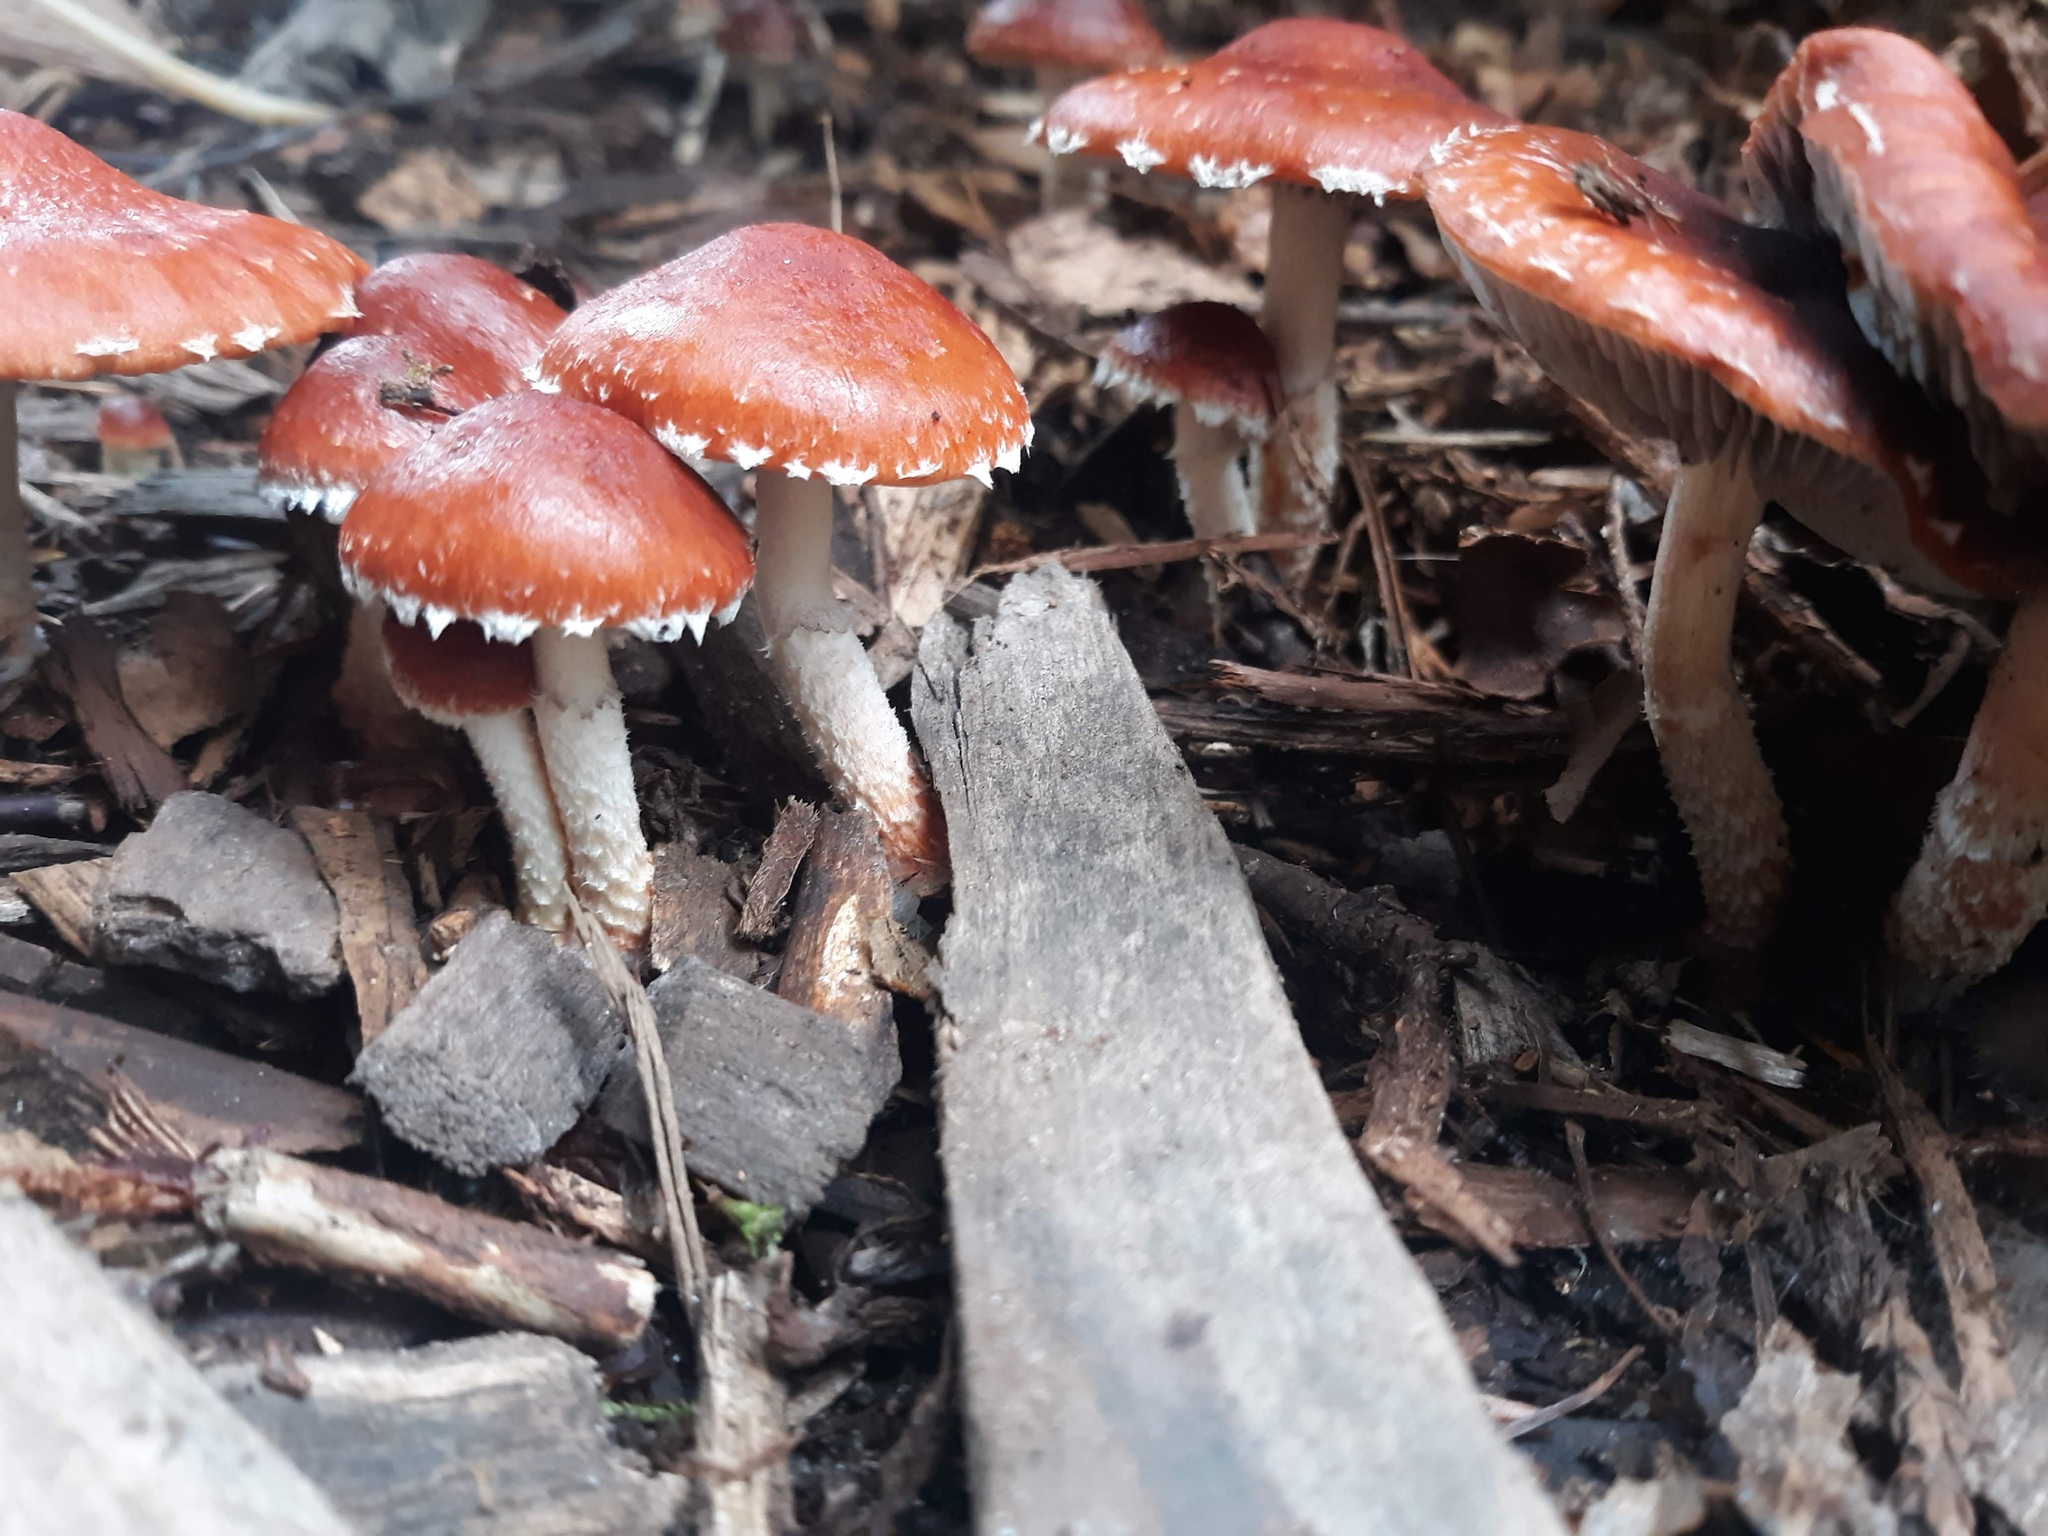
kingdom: Fungi
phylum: Basidiomycota
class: Agaricomycetes
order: Agaricales
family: Strophariaceae
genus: Leratiomyces
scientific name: Leratiomyces ceres
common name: Redlead roundhead
